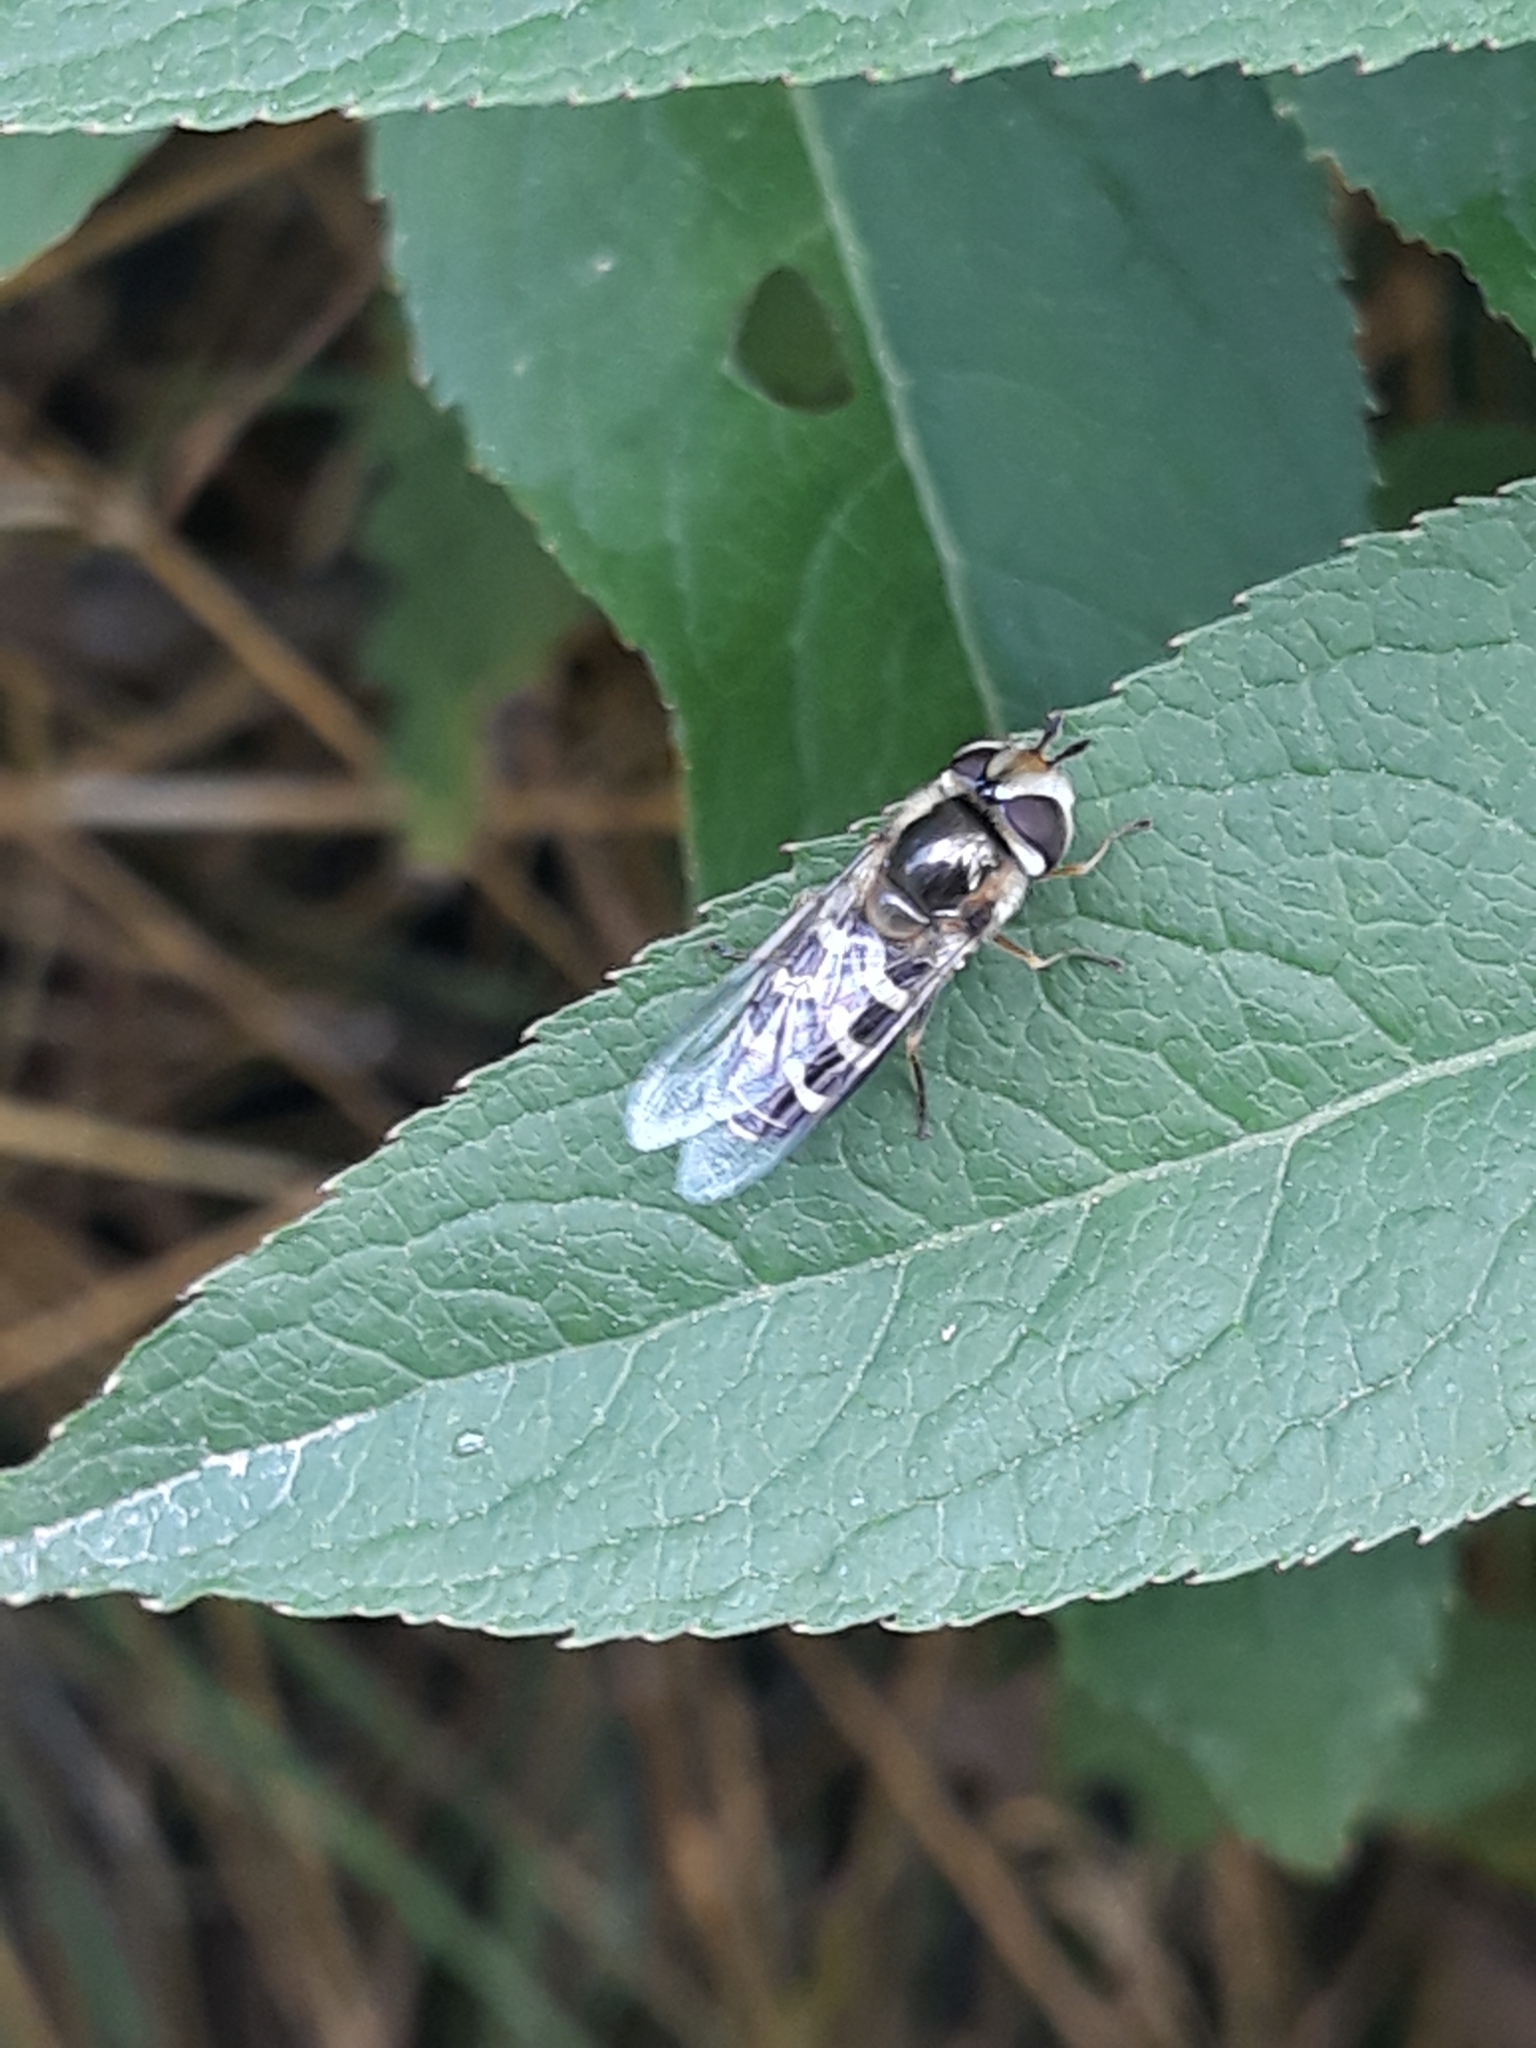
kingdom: Animalia
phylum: Arthropoda
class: Insecta
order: Diptera
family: Syrphidae
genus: Scaeva
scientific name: Scaeva pyrastri
